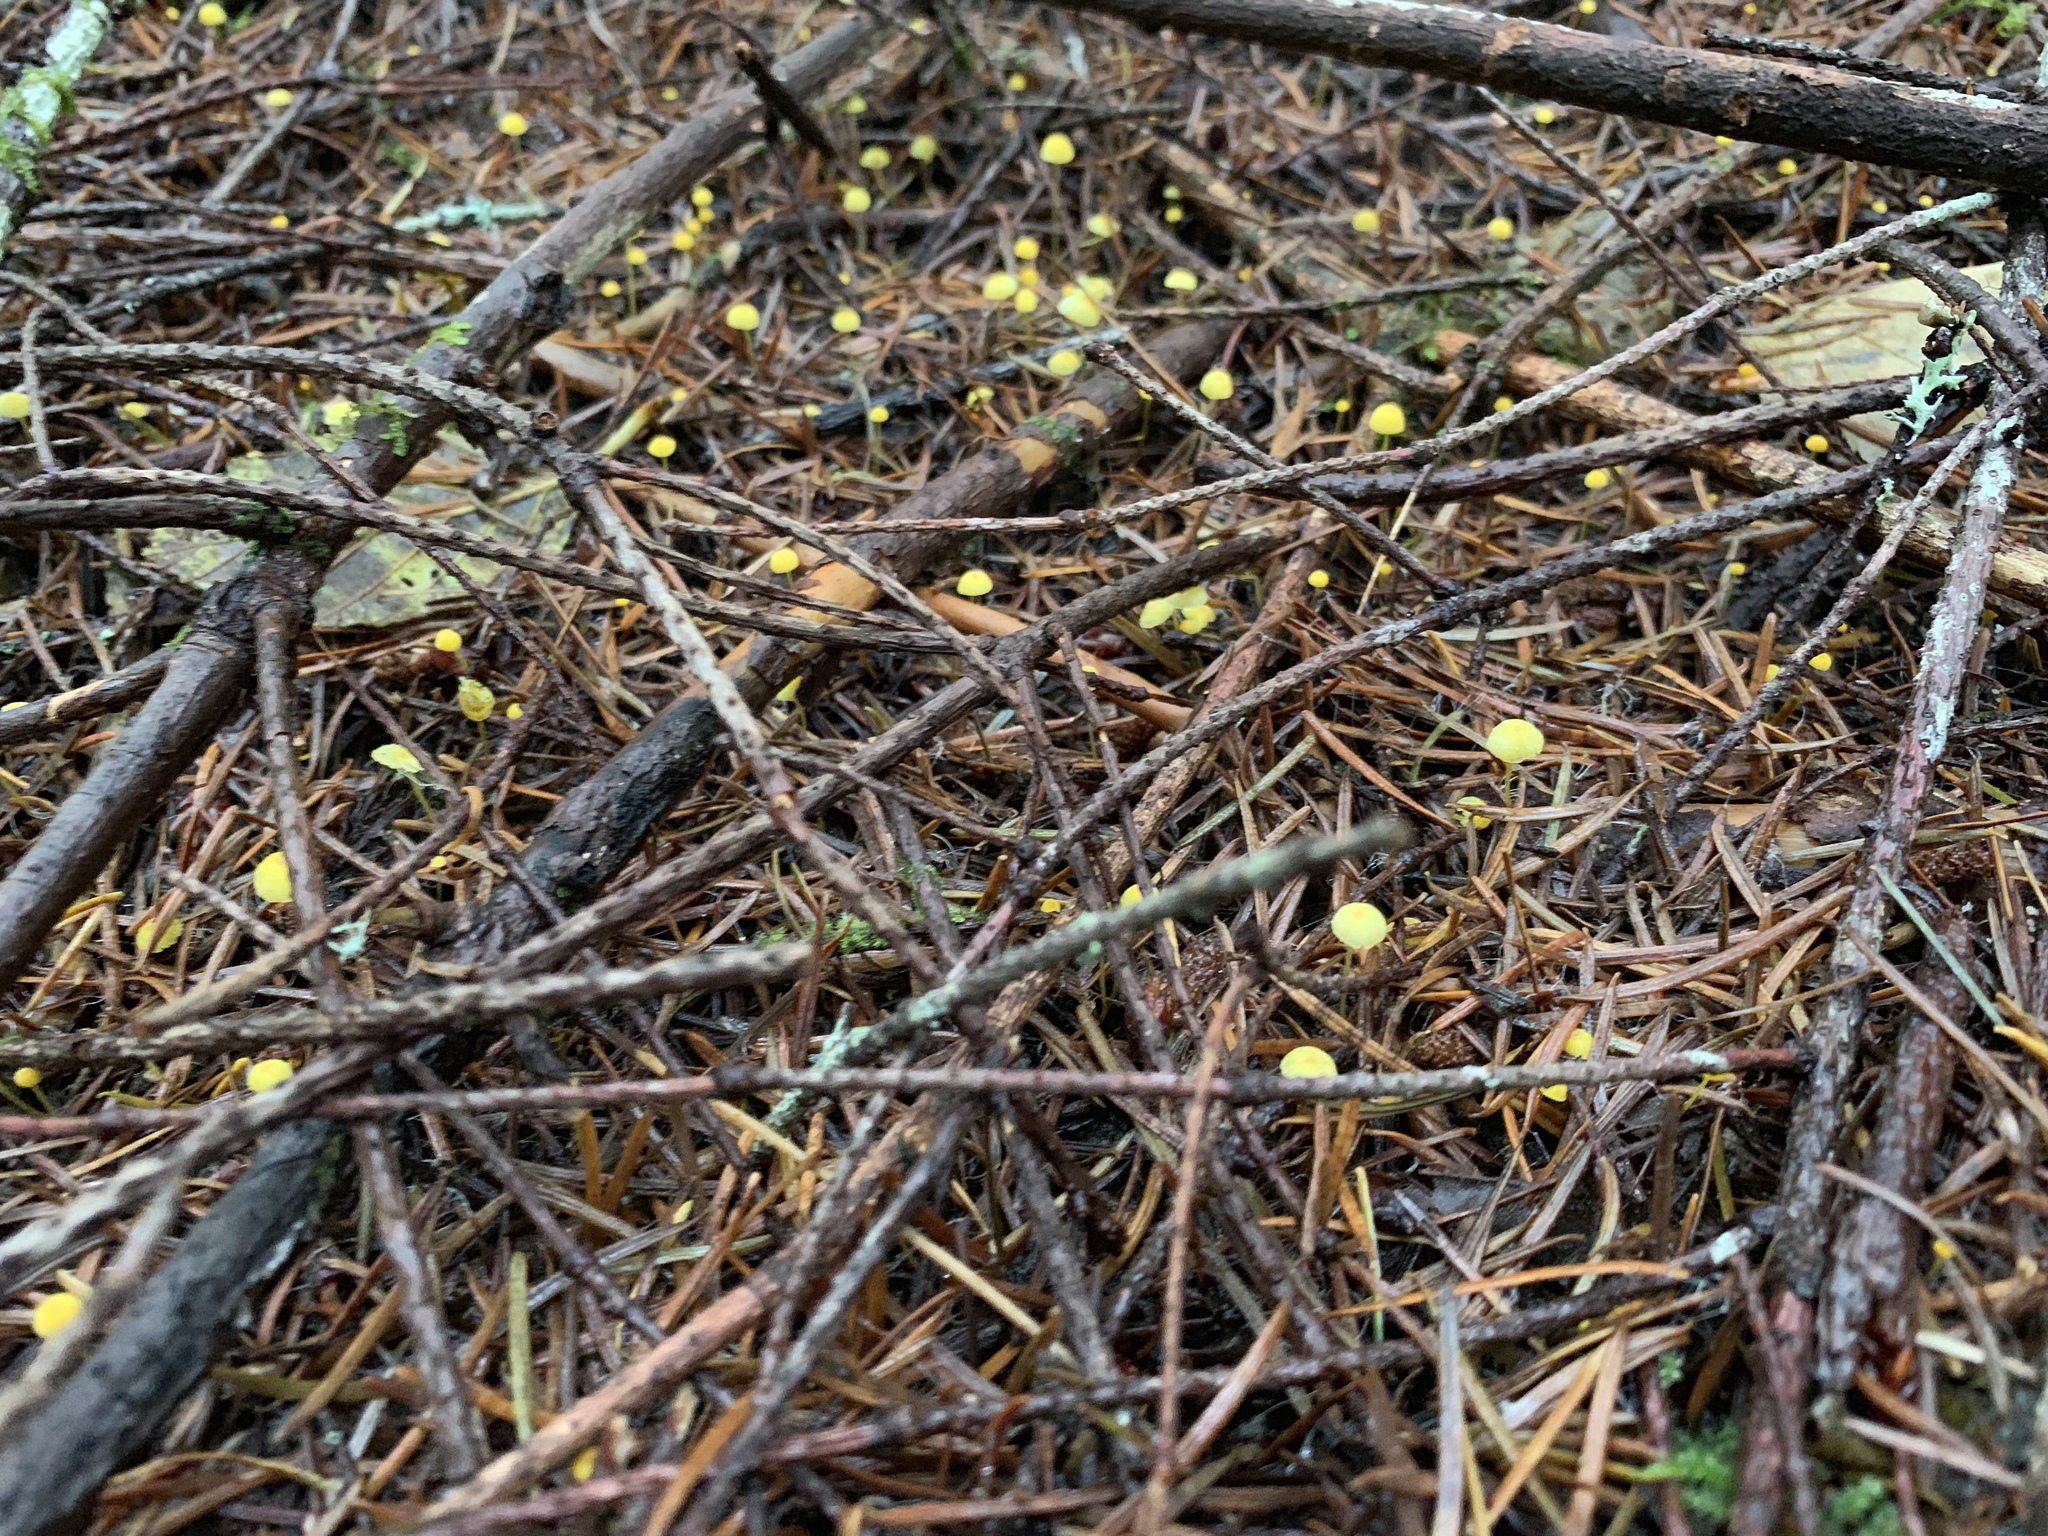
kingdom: Fungi
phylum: Basidiomycota
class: Agaricomycetes
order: Agaricales
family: Mycenaceae
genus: Mycena
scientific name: Mycena oregonensis
